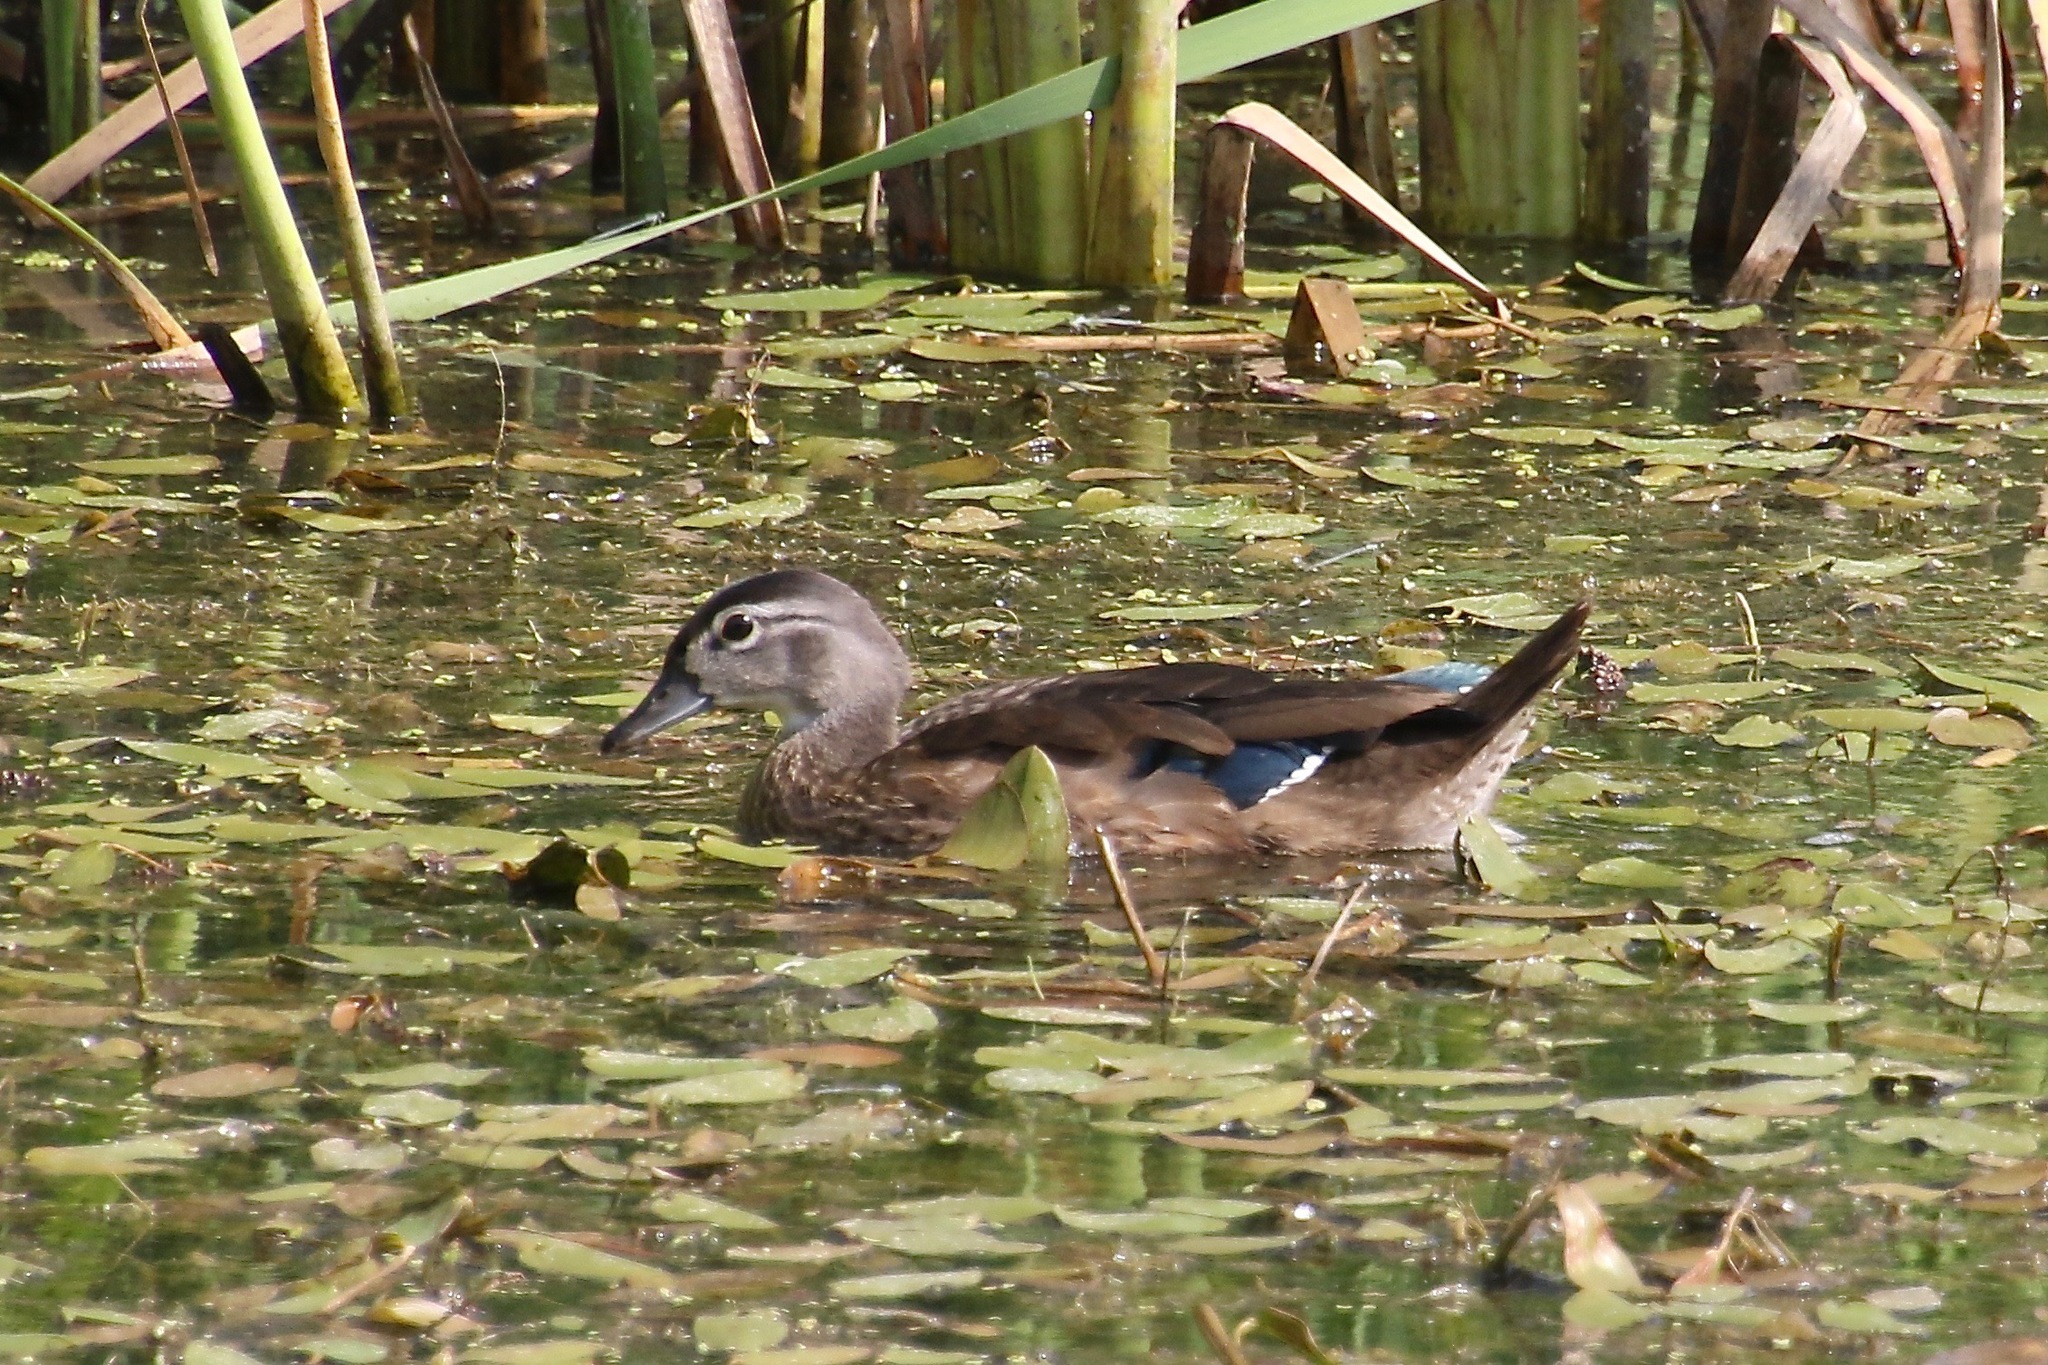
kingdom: Animalia
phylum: Chordata
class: Aves
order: Anseriformes
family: Anatidae
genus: Aix
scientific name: Aix sponsa
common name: Wood duck
